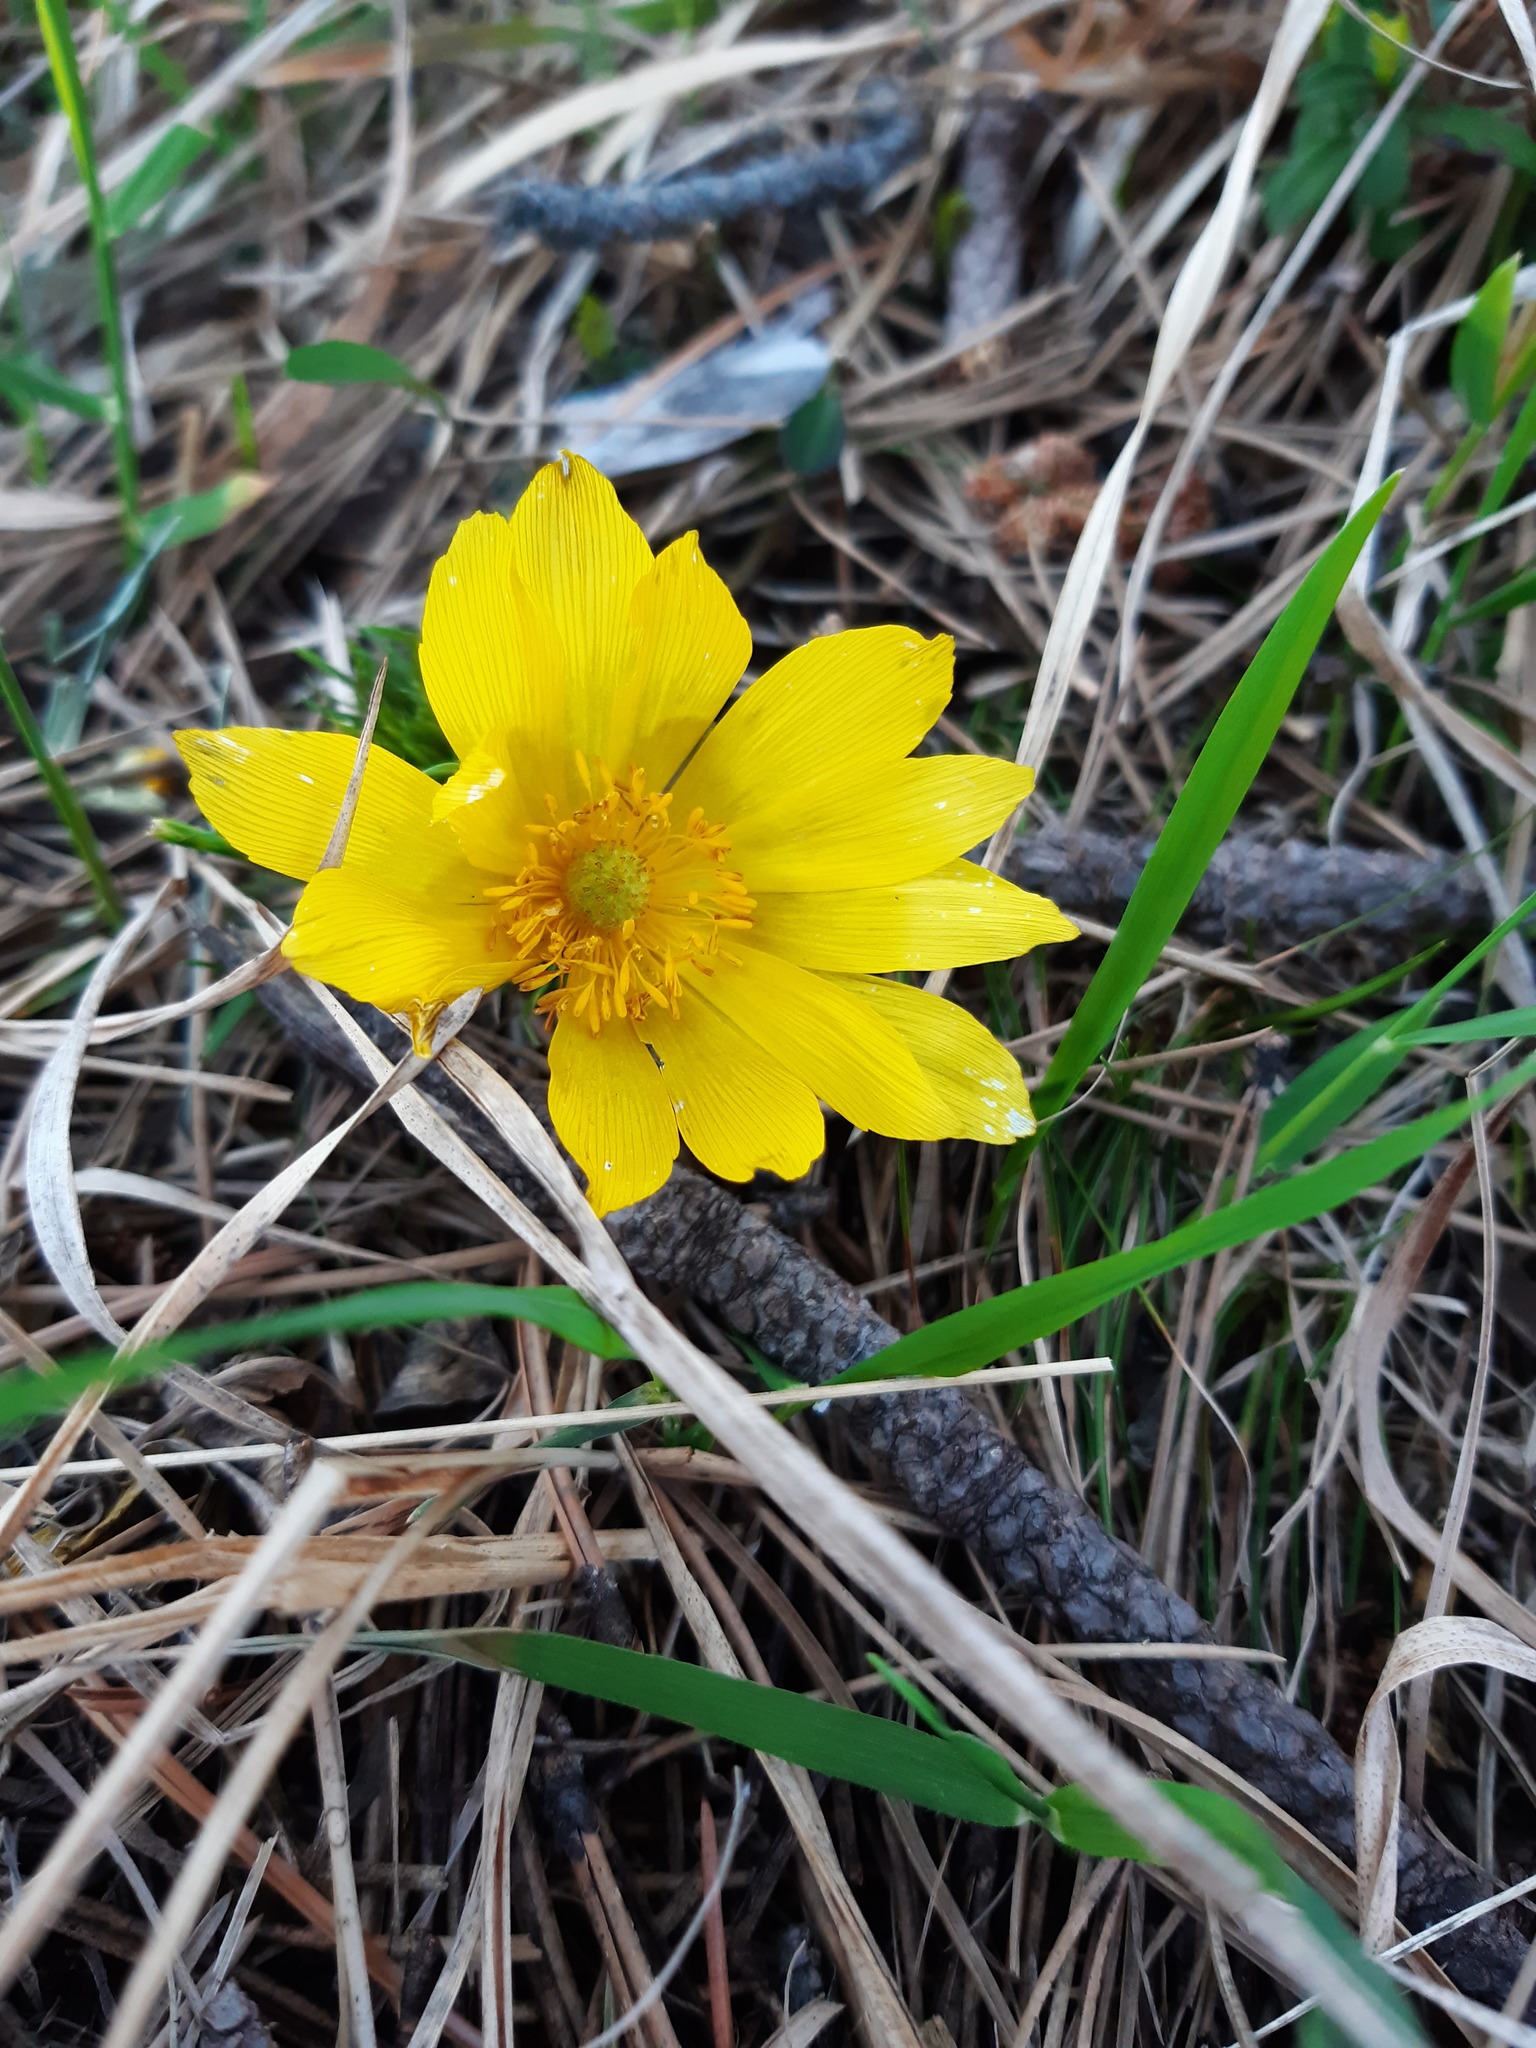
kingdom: Plantae
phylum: Tracheophyta
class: Magnoliopsida
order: Ranunculales
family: Ranunculaceae
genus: Adonis
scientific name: Adonis vernalis
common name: Yellow pheasants-eye
